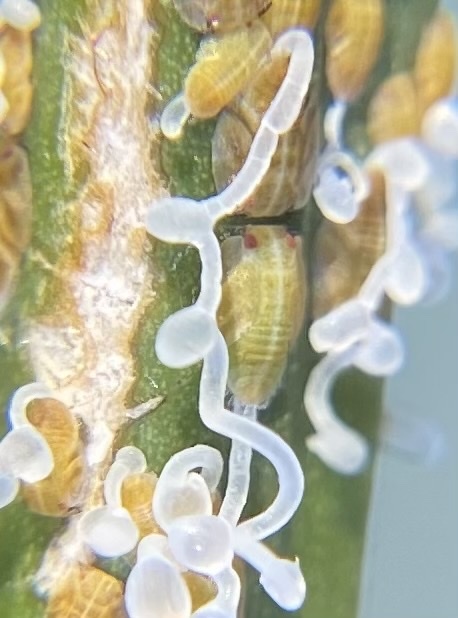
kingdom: Animalia
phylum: Arthropoda
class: Insecta
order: Hemiptera
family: Liviidae
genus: Diaphorina
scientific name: Diaphorina citri
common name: Asian citrus psyllid
